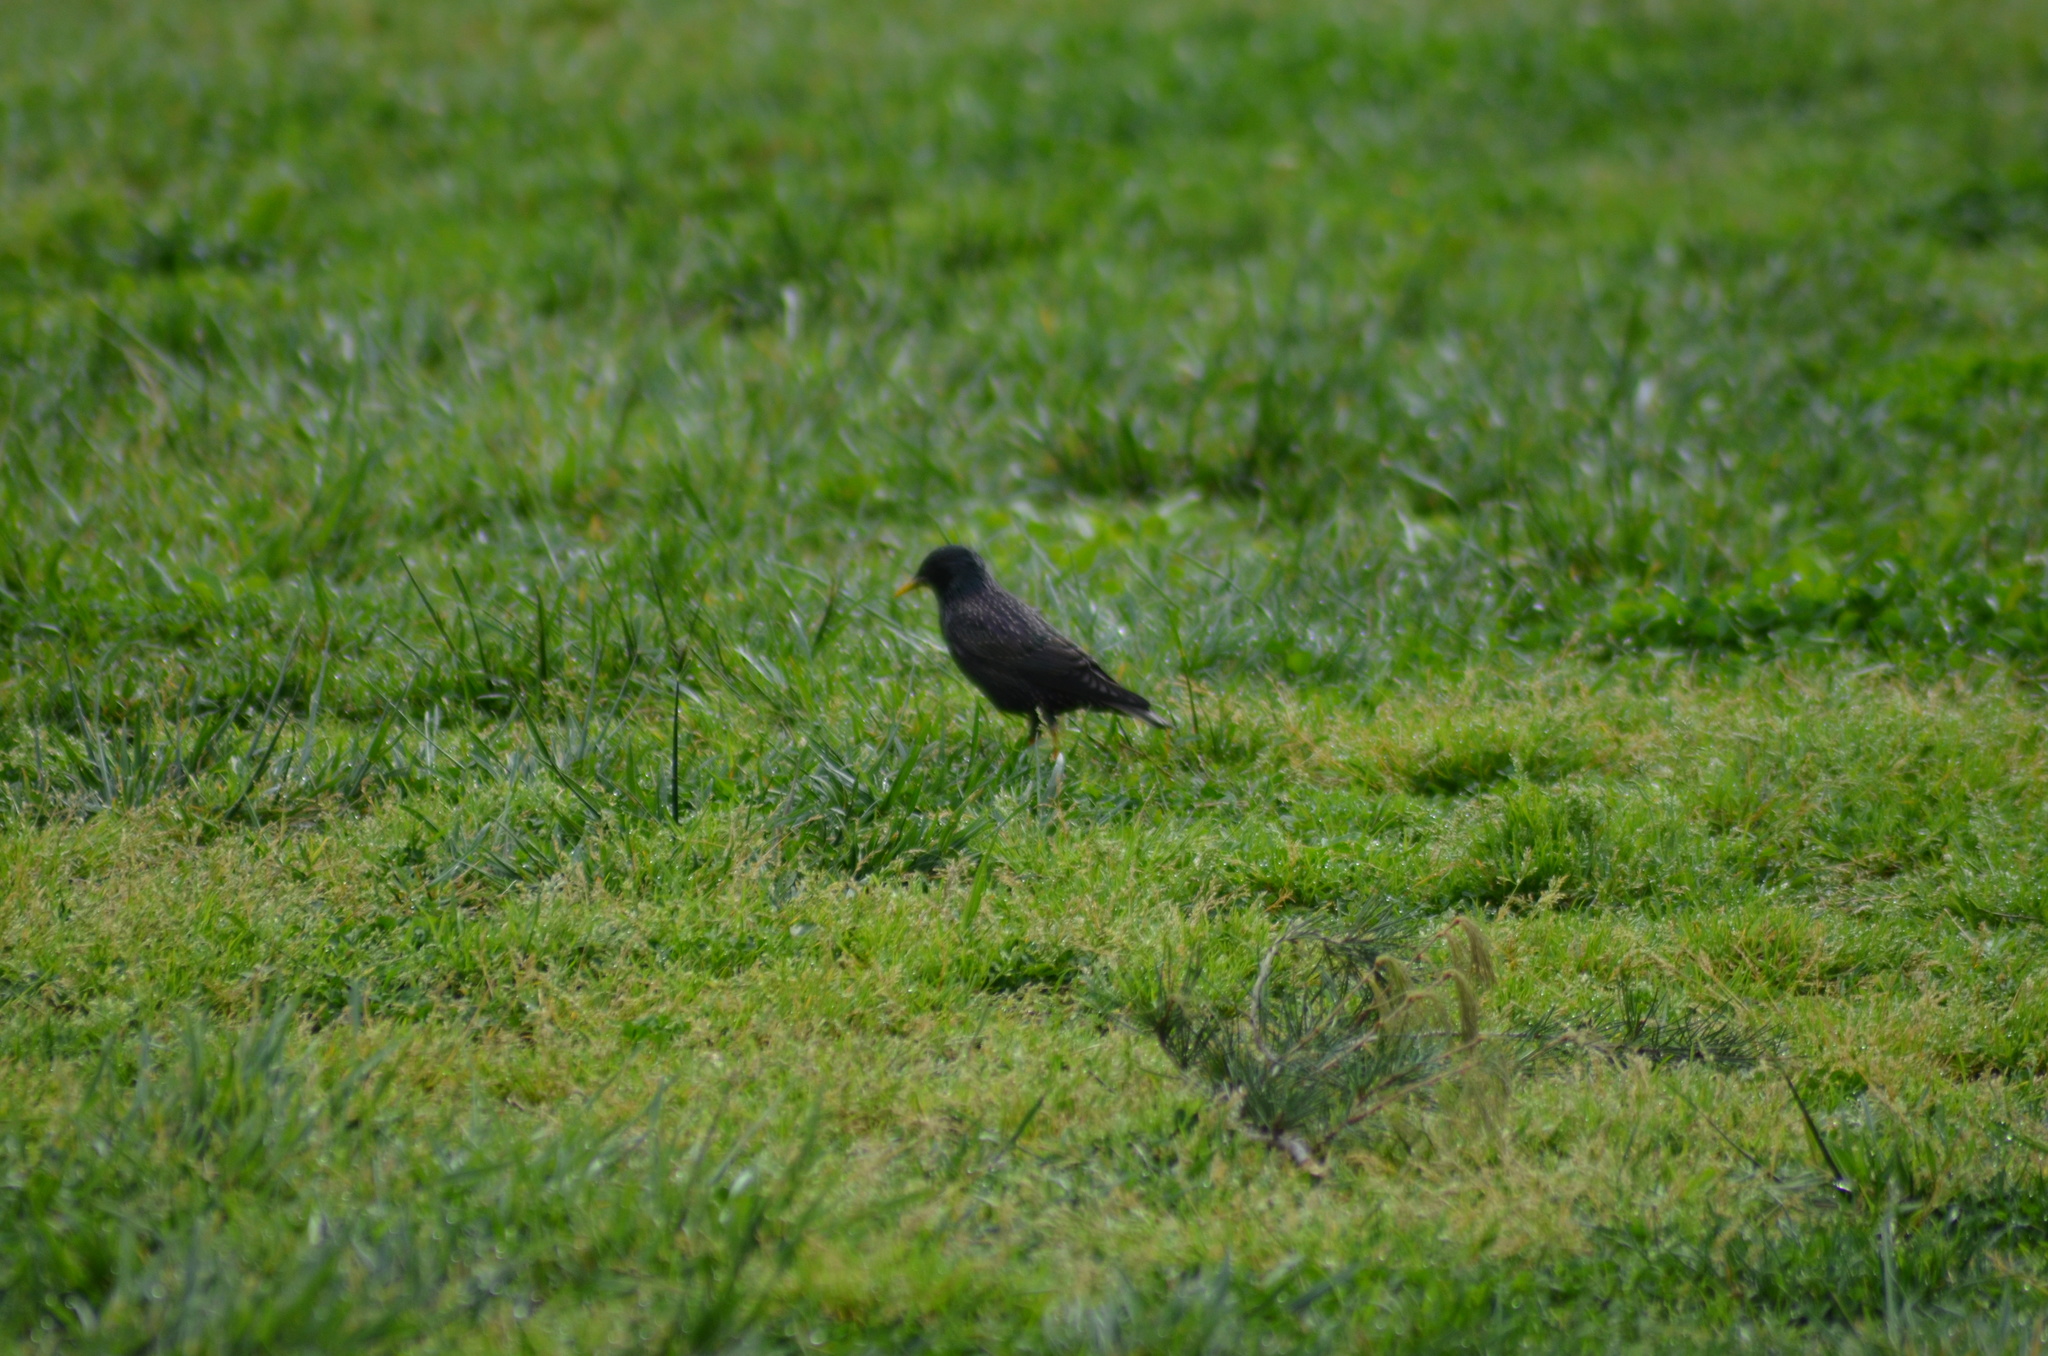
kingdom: Animalia
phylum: Chordata
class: Aves
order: Passeriformes
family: Sturnidae
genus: Sturnus
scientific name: Sturnus vulgaris
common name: Common starling
